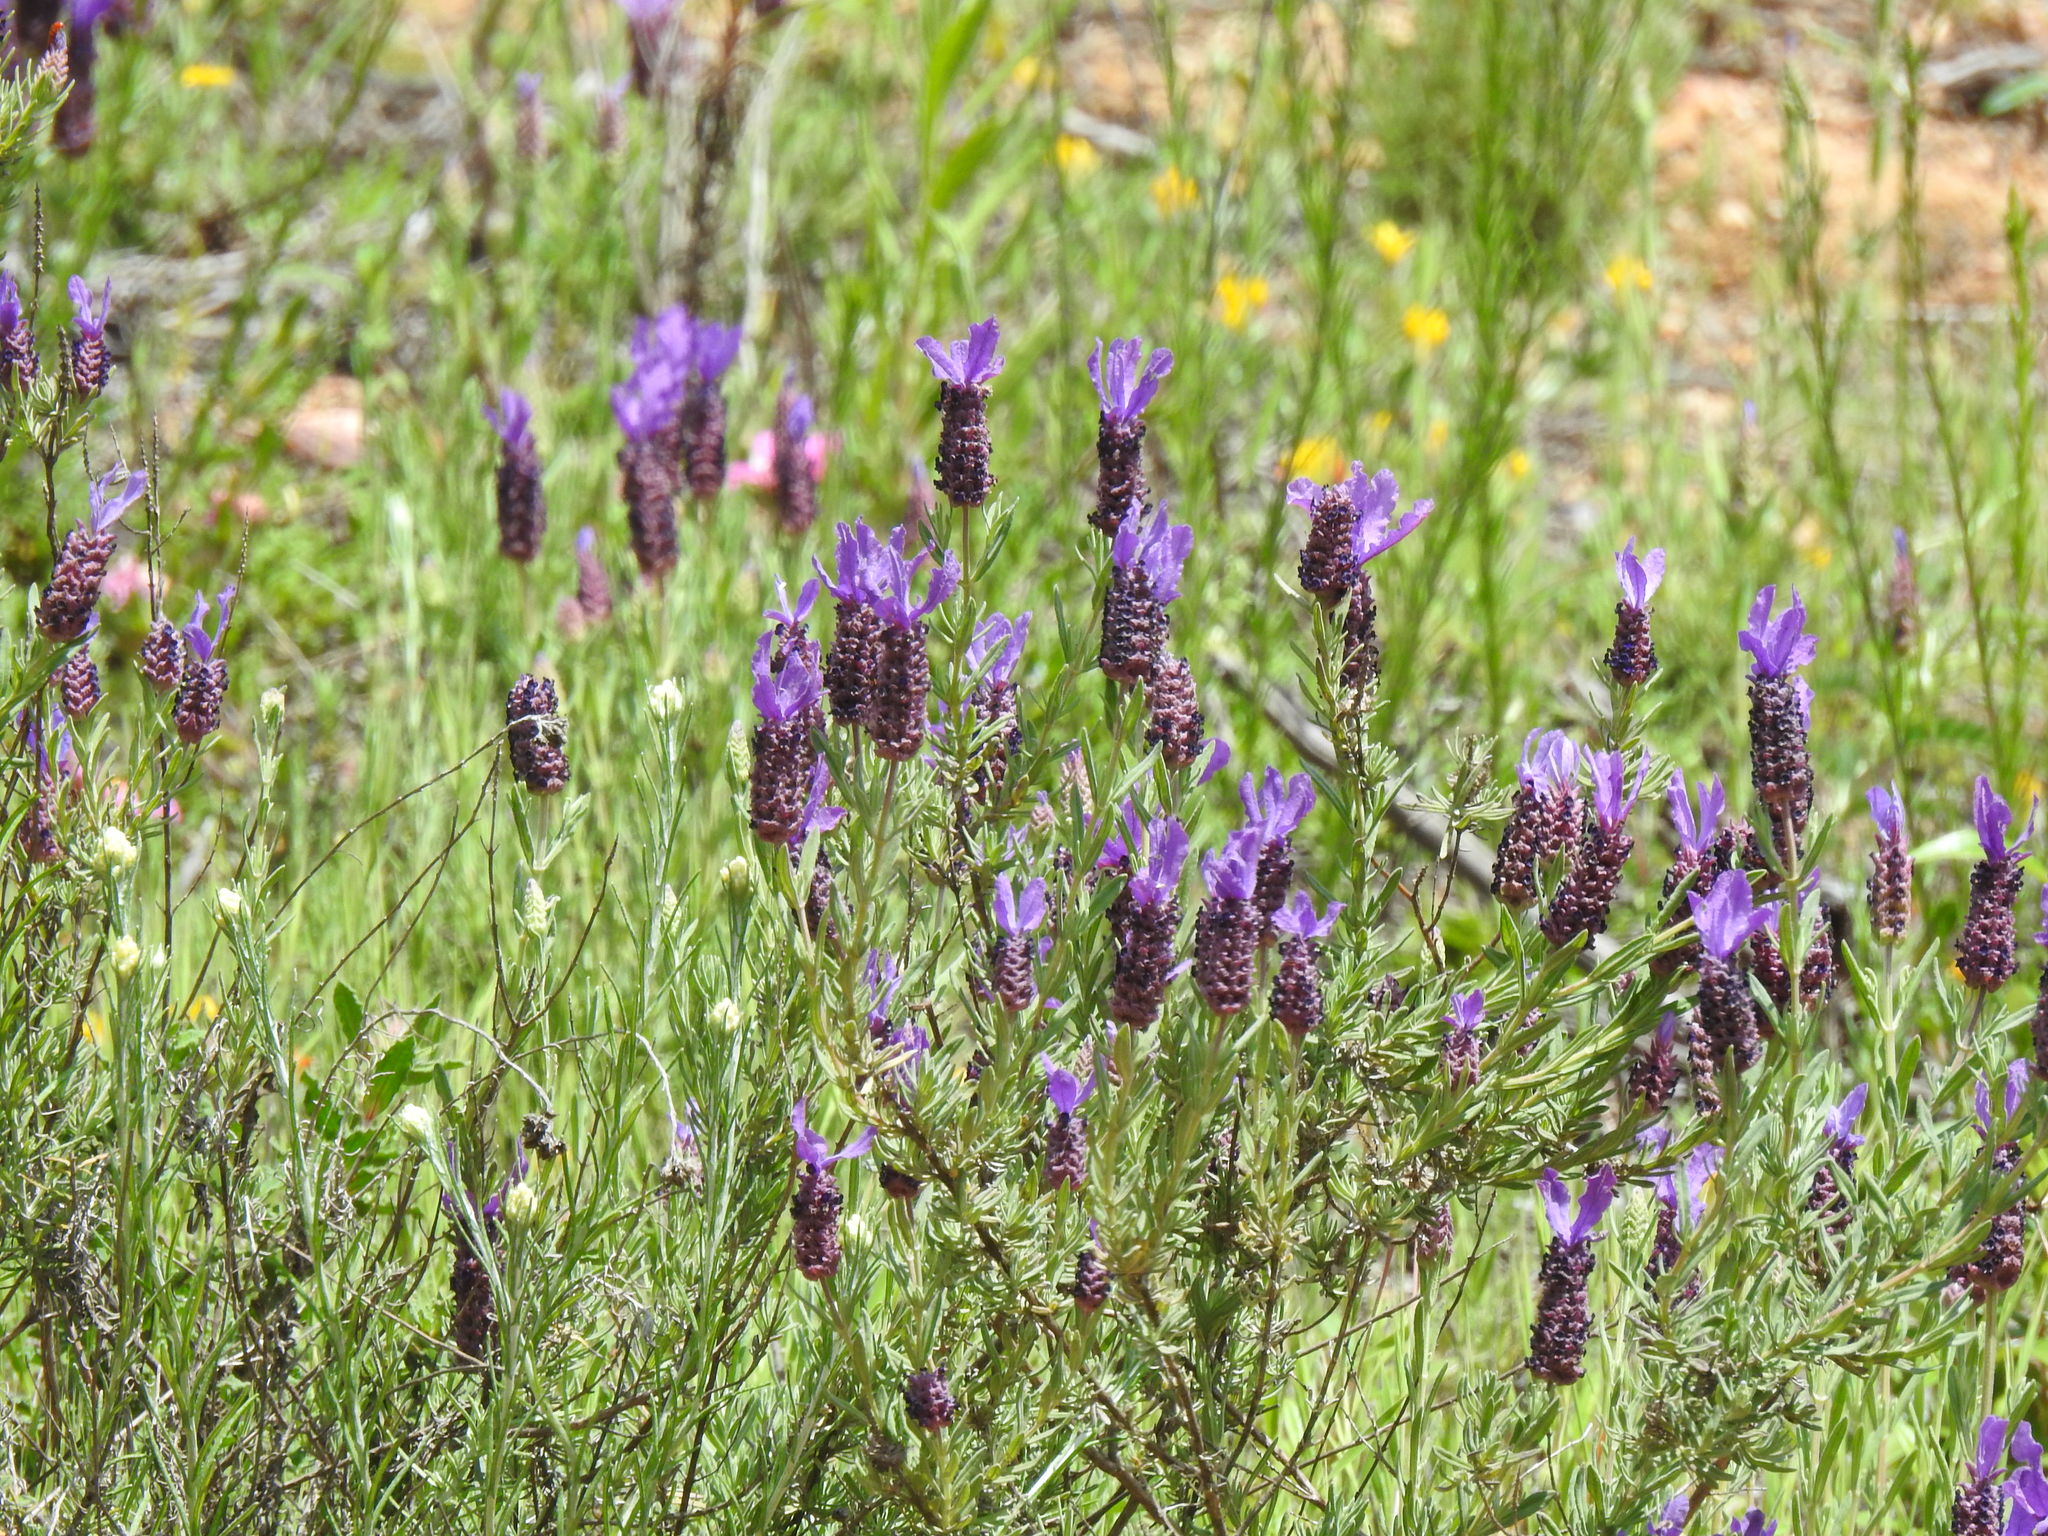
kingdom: Plantae
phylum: Tracheophyta
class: Magnoliopsida
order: Lamiales
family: Lamiaceae
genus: Lavandula
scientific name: Lavandula stoechas
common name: French lavender
